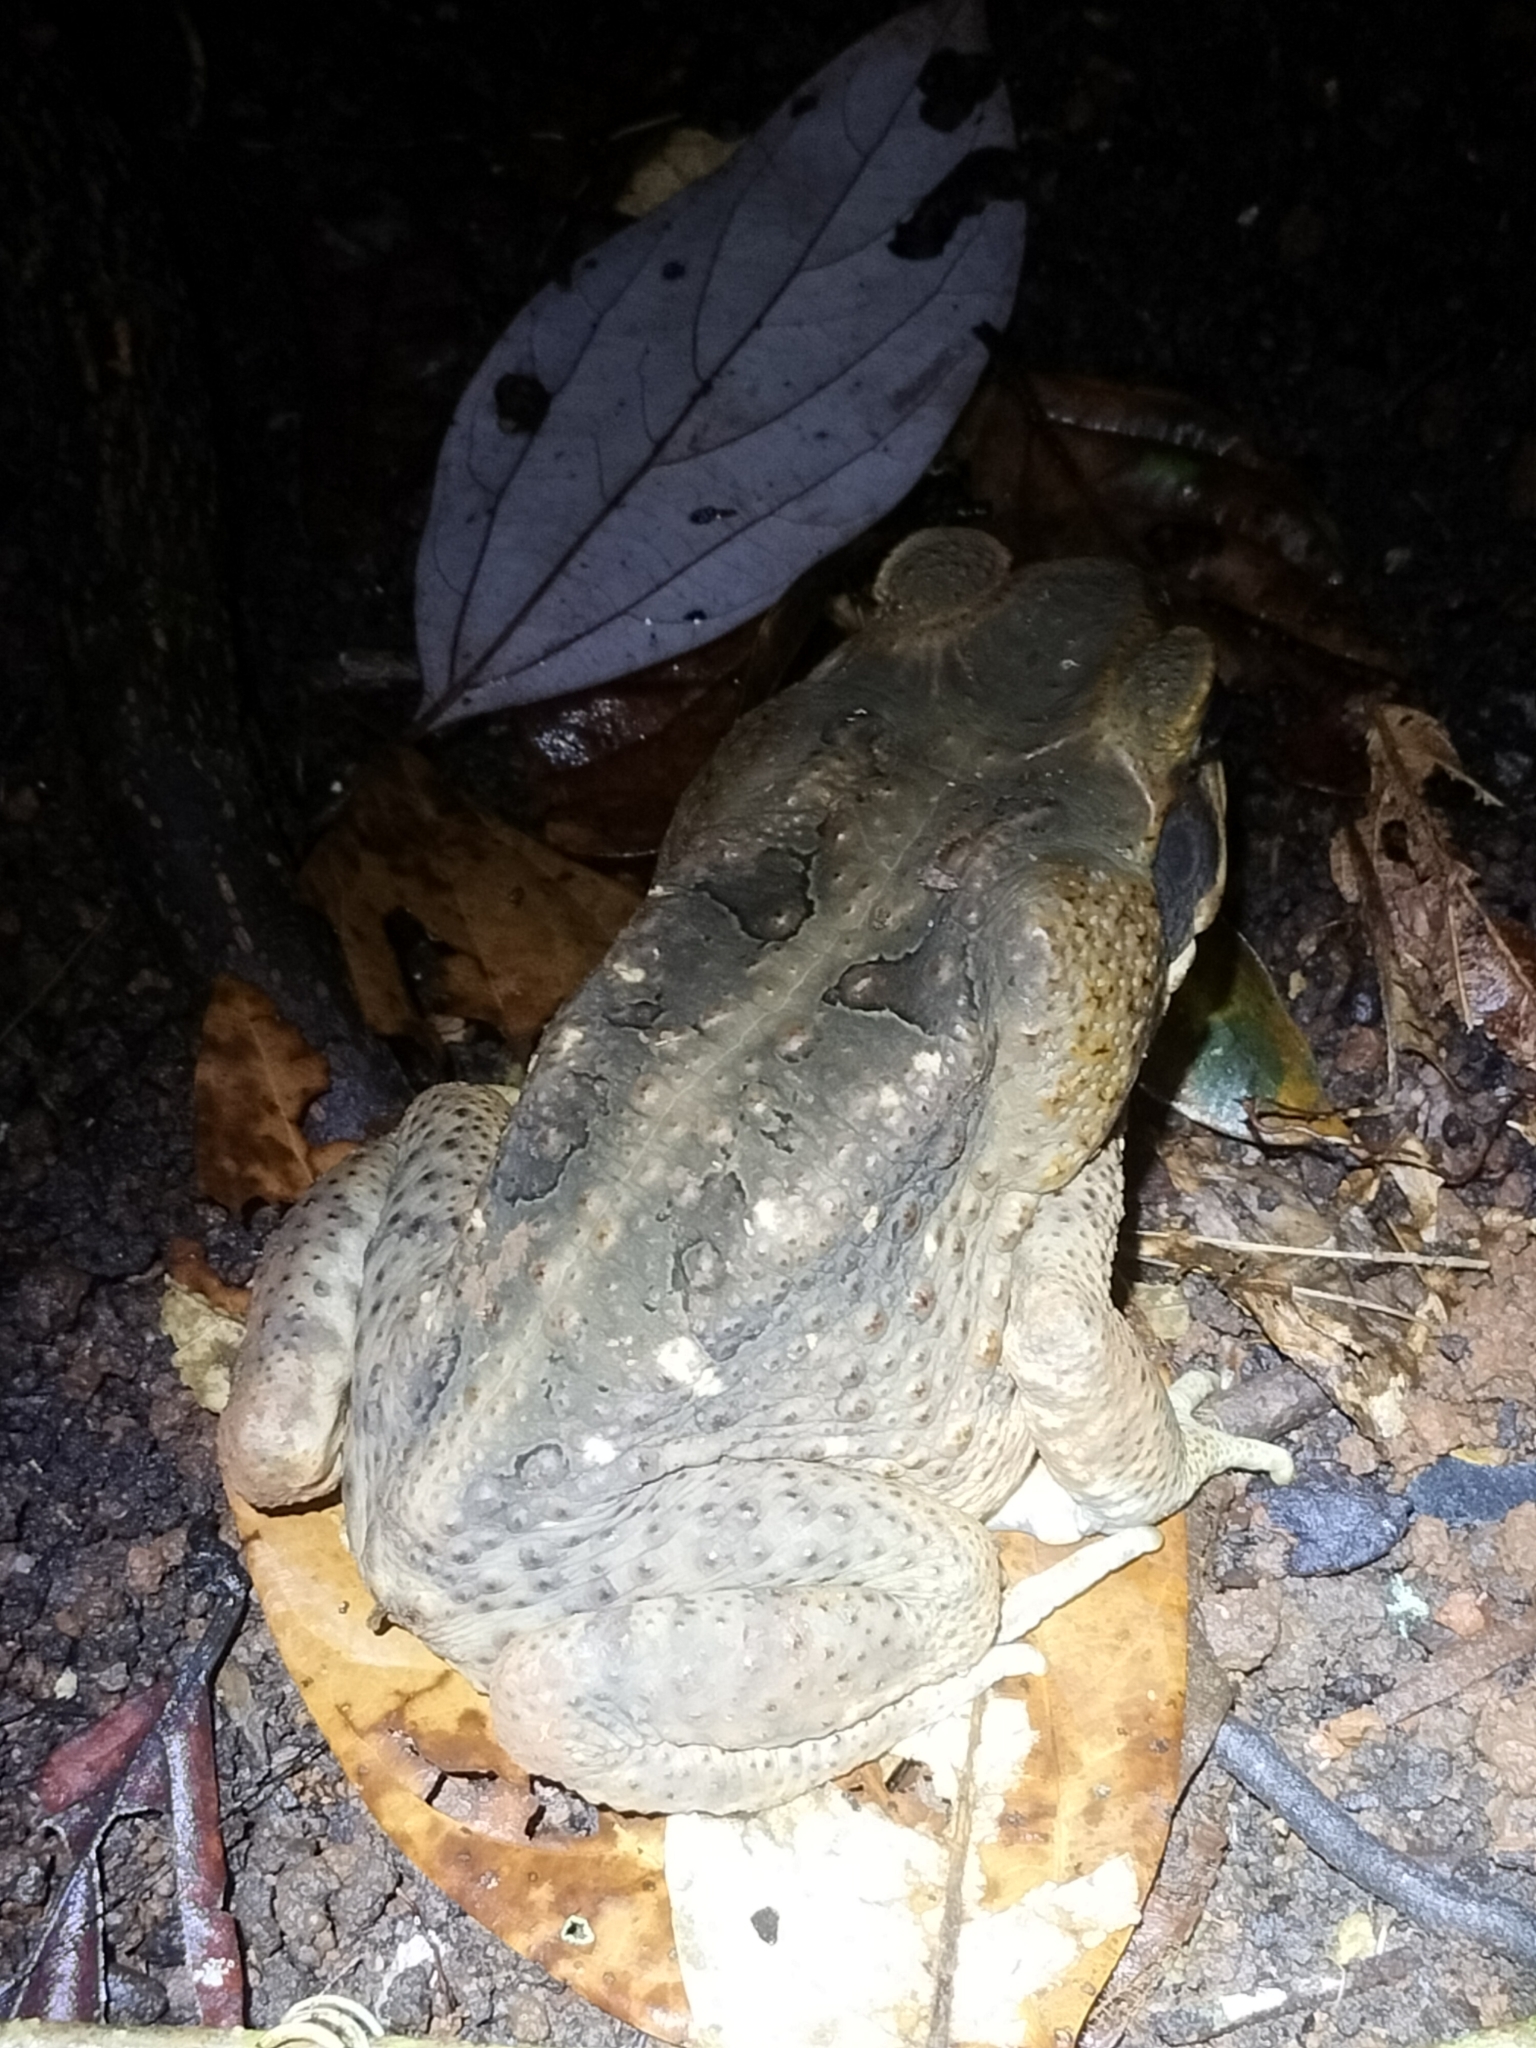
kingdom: Animalia
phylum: Chordata
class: Amphibia
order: Anura
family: Bufonidae
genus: Rhinella
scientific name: Rhinella marina
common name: Cane toad
